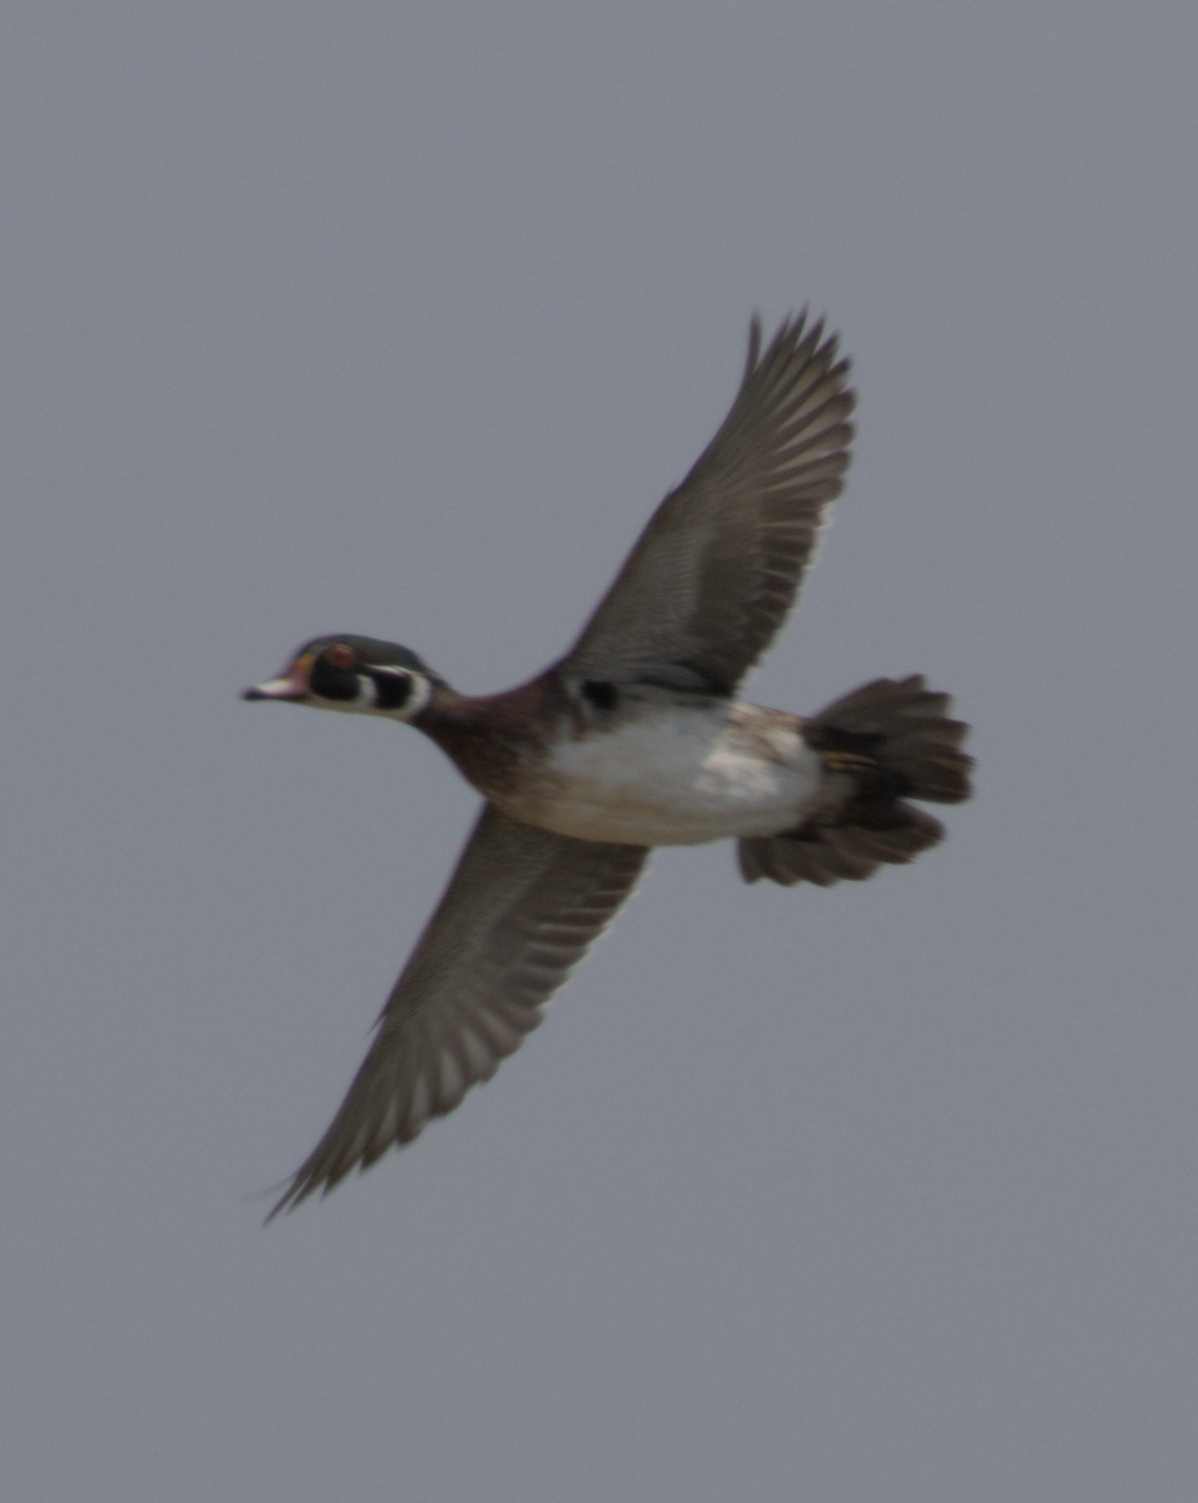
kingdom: Animalia
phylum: Chordata
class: Aves
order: Anseriformes
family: Anatidae
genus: Aix
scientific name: Aix sponsa
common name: Wood duck
